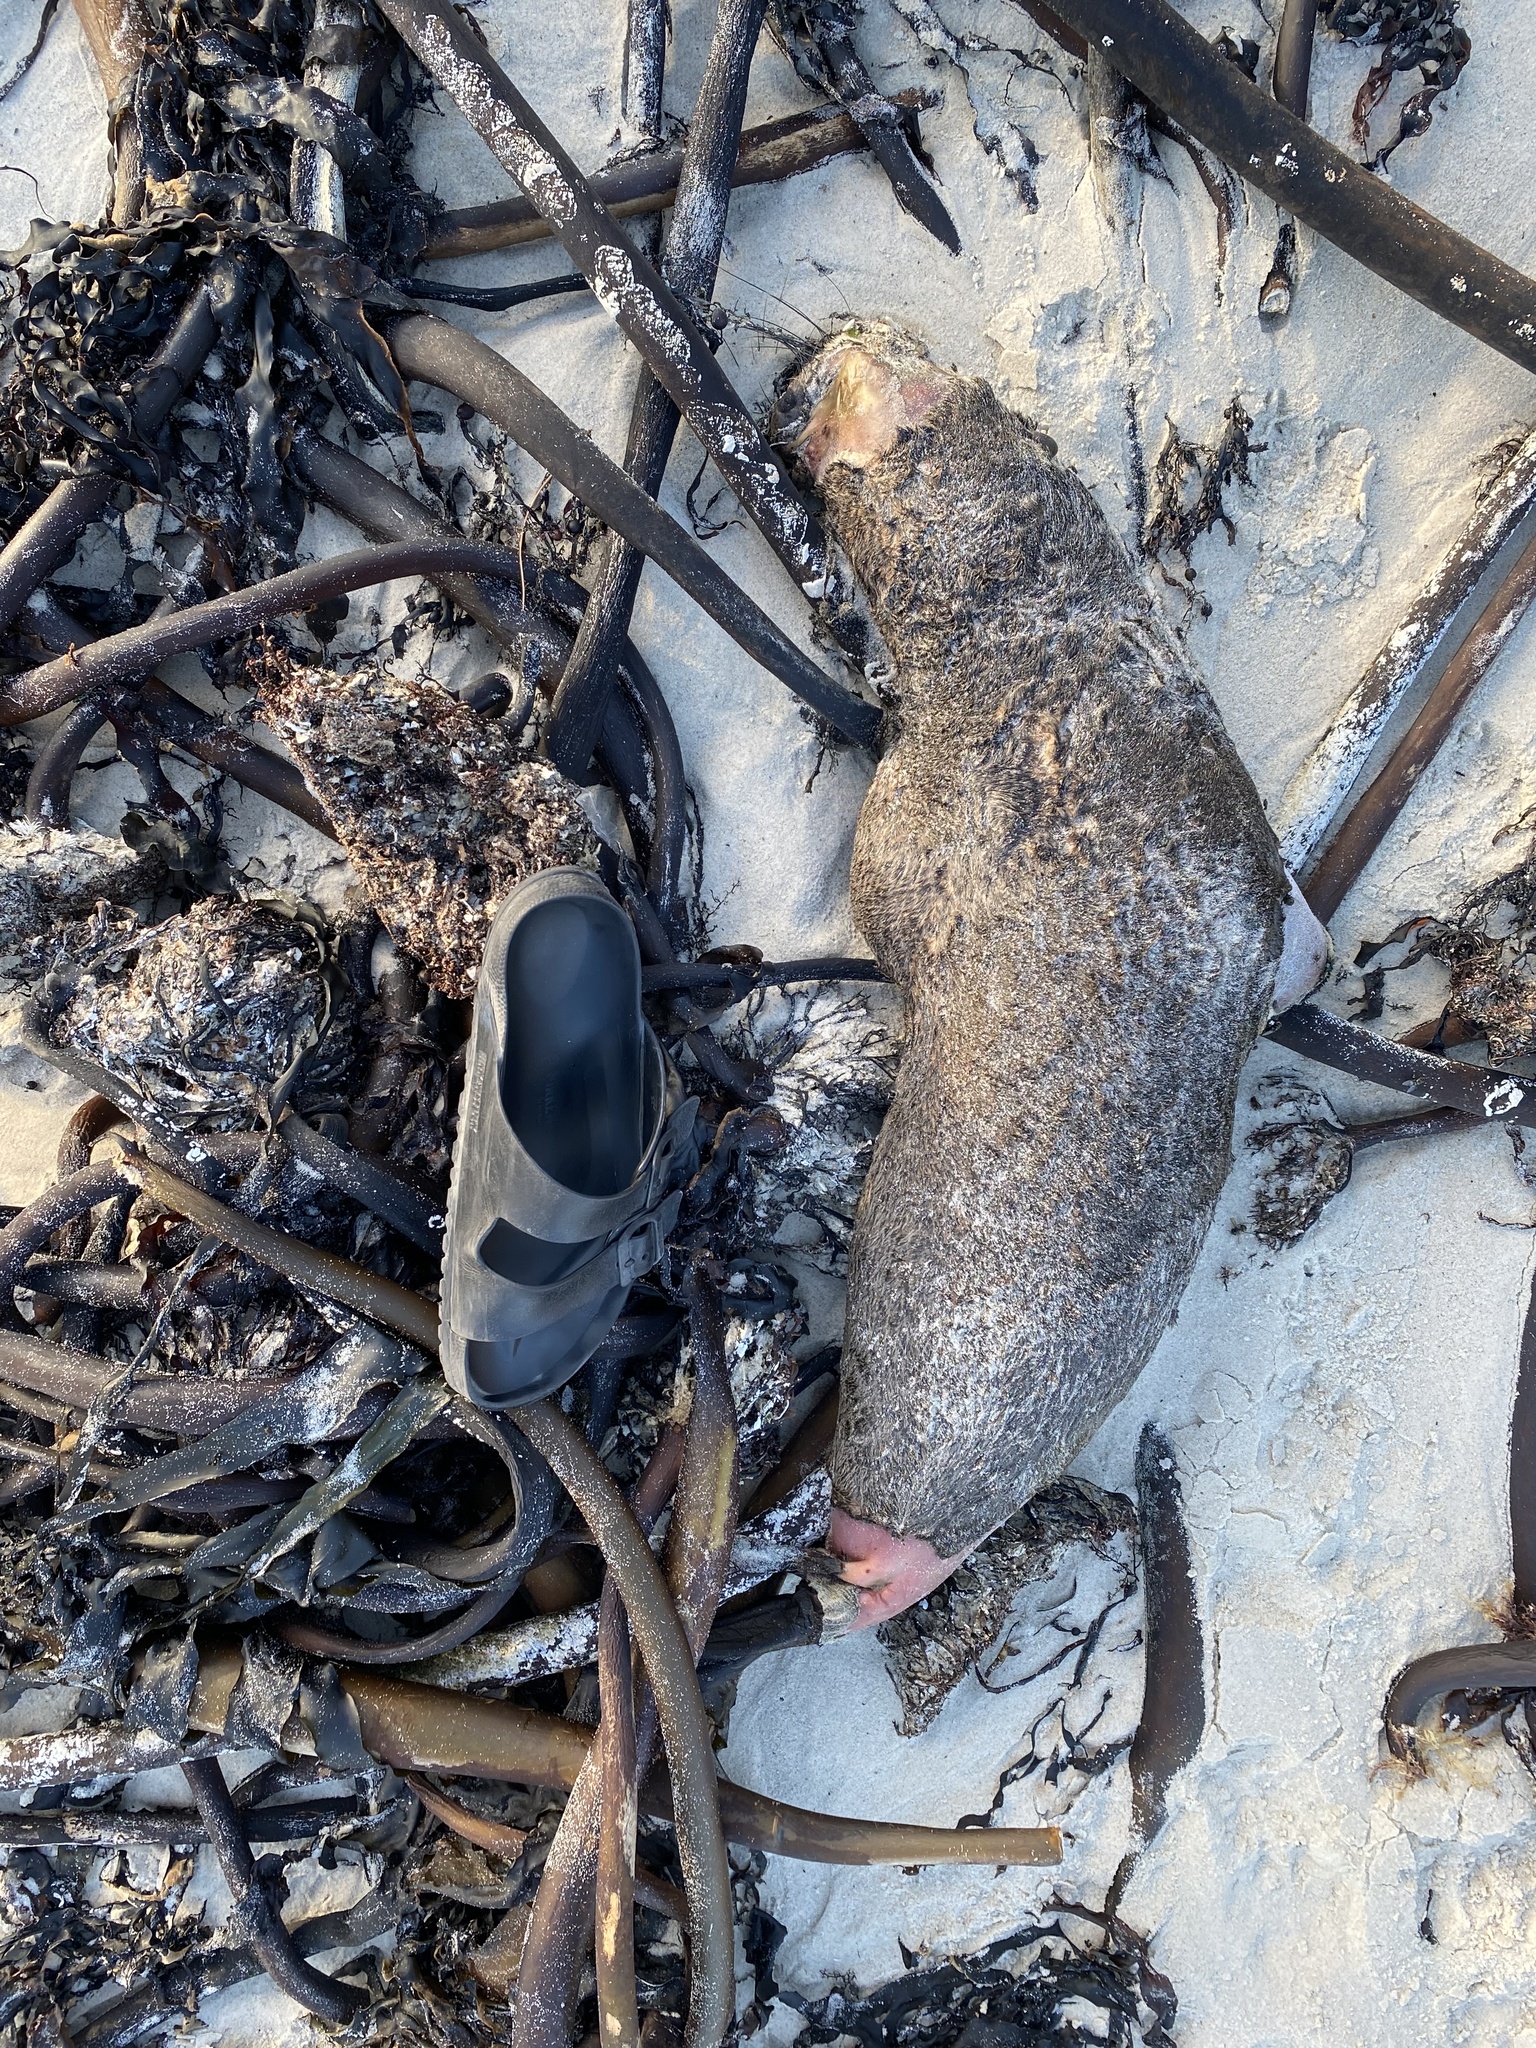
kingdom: Animalia
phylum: Chordata
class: Mammalia
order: Carnivora
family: Otariidae
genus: Arctocephalus
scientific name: Arctocephalus pusillus
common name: Brown fur seal
